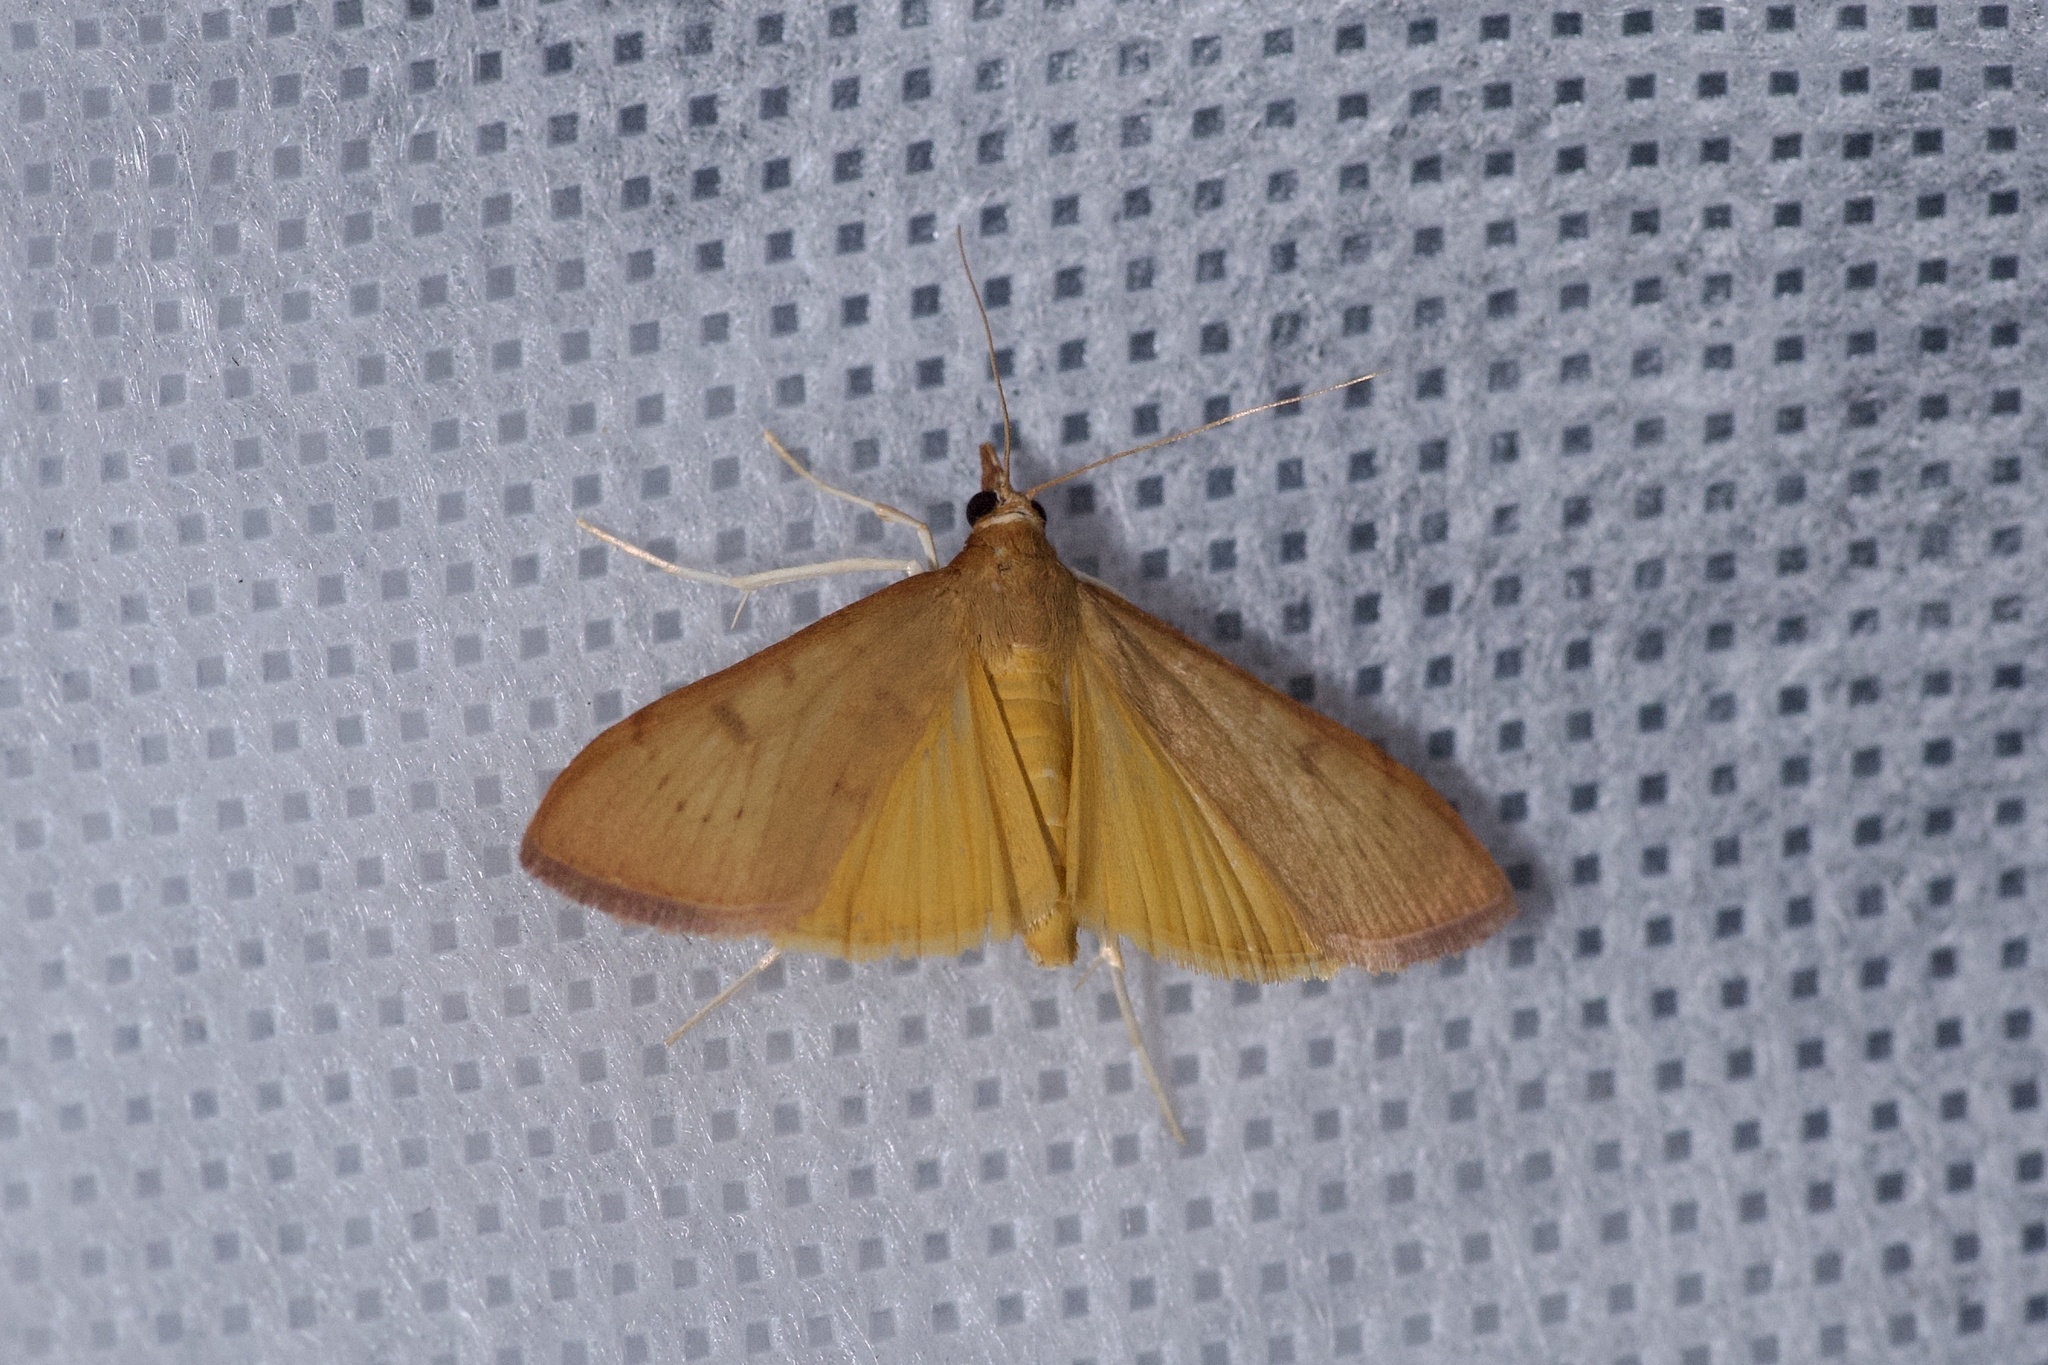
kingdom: Animalia
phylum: Arthropoda
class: Insecta
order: Lepidoptera
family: Crambidae
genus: Uresiphita
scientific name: Uresiphita reversalis
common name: Genista broom moth
